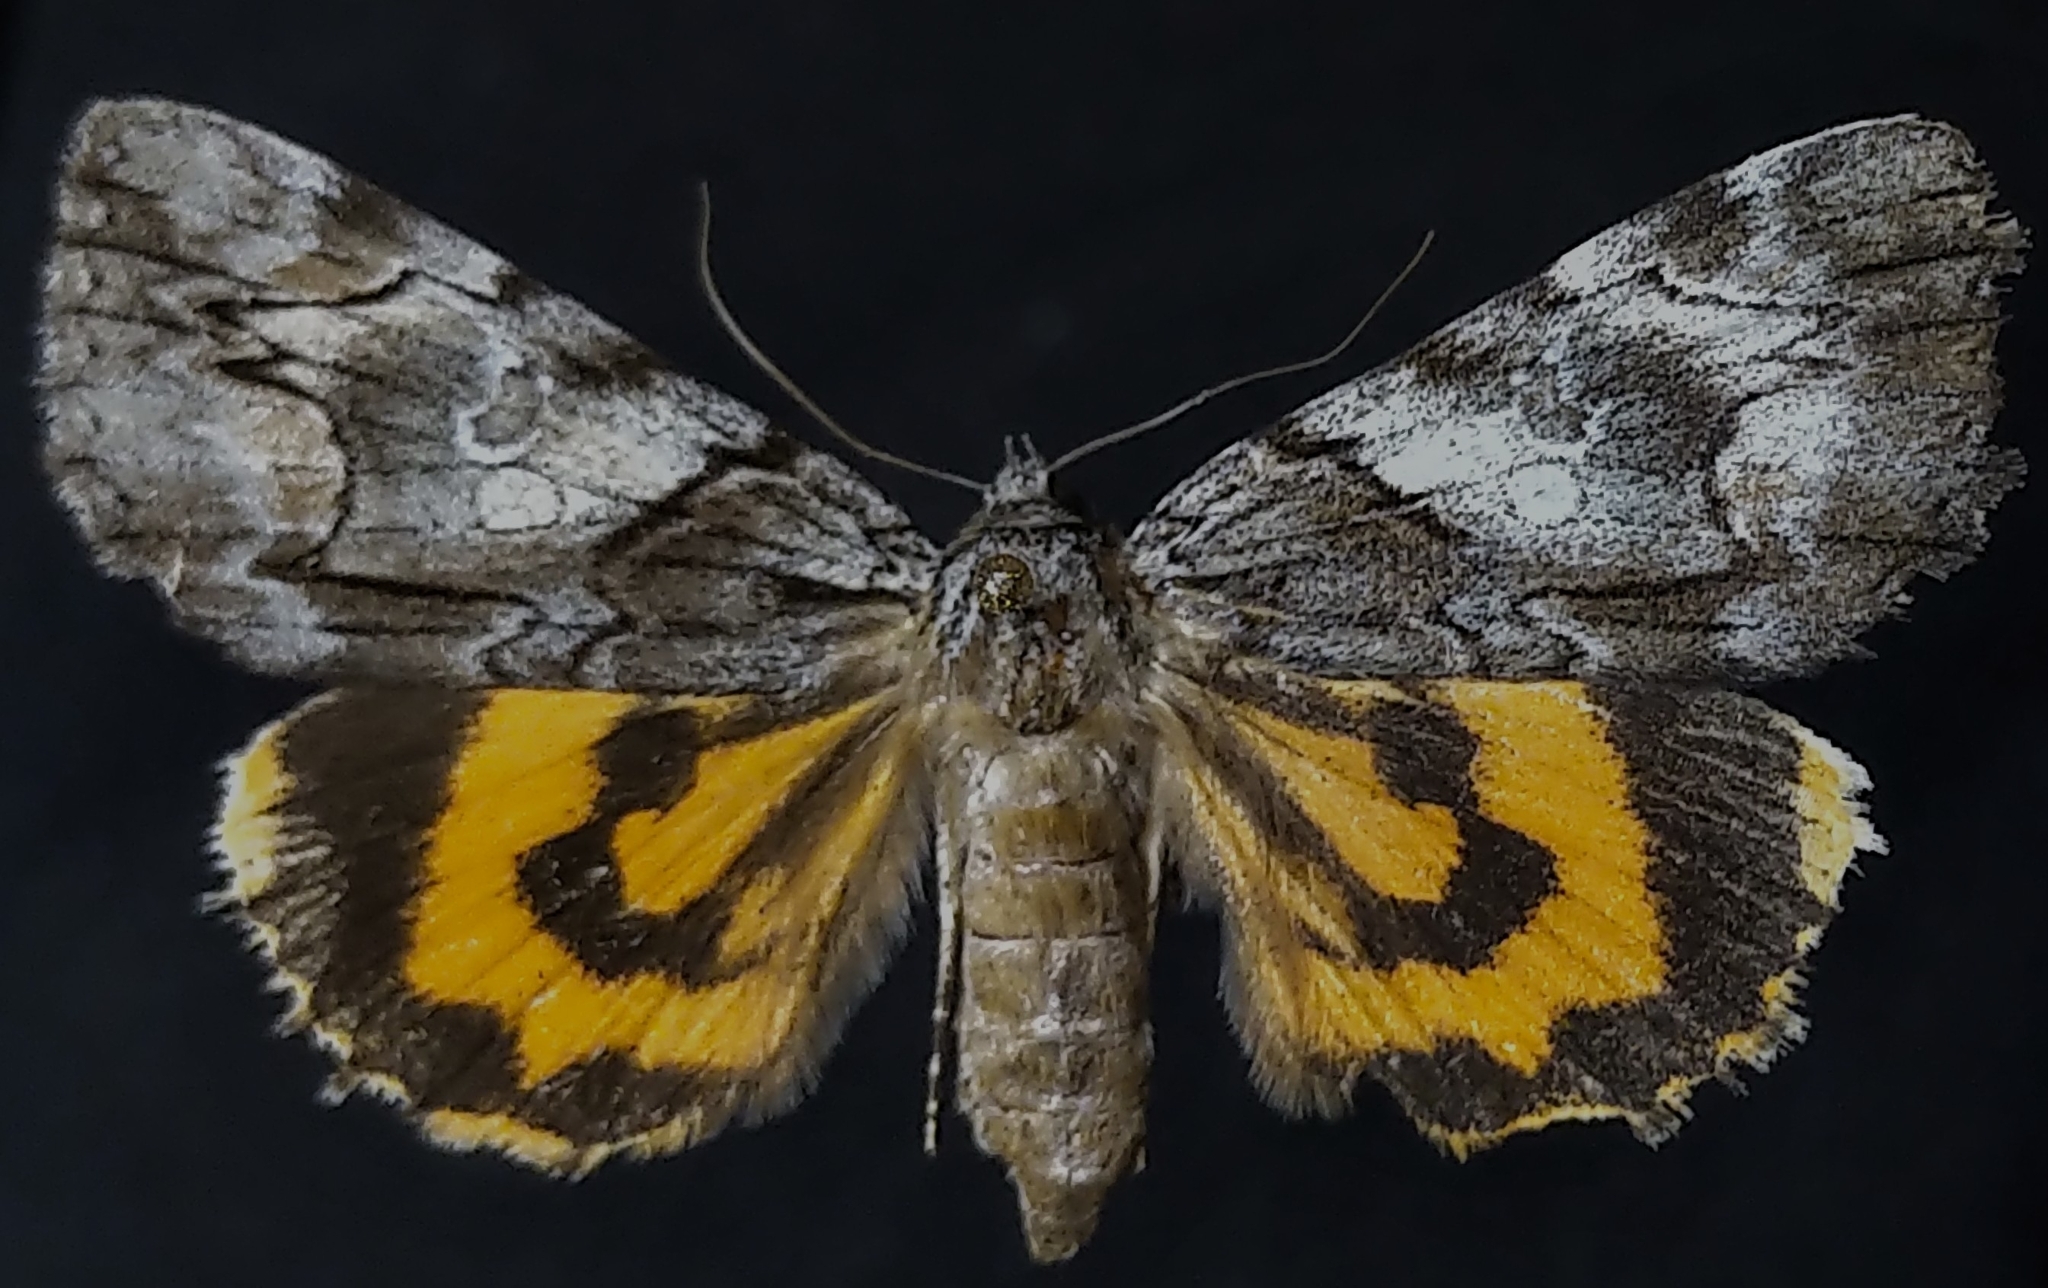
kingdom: Animalia
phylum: Arthropoda
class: Insecta
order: Lepidoptera
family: Erebidae
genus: Catocala
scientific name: Catocala blandula
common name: Charming underwing
